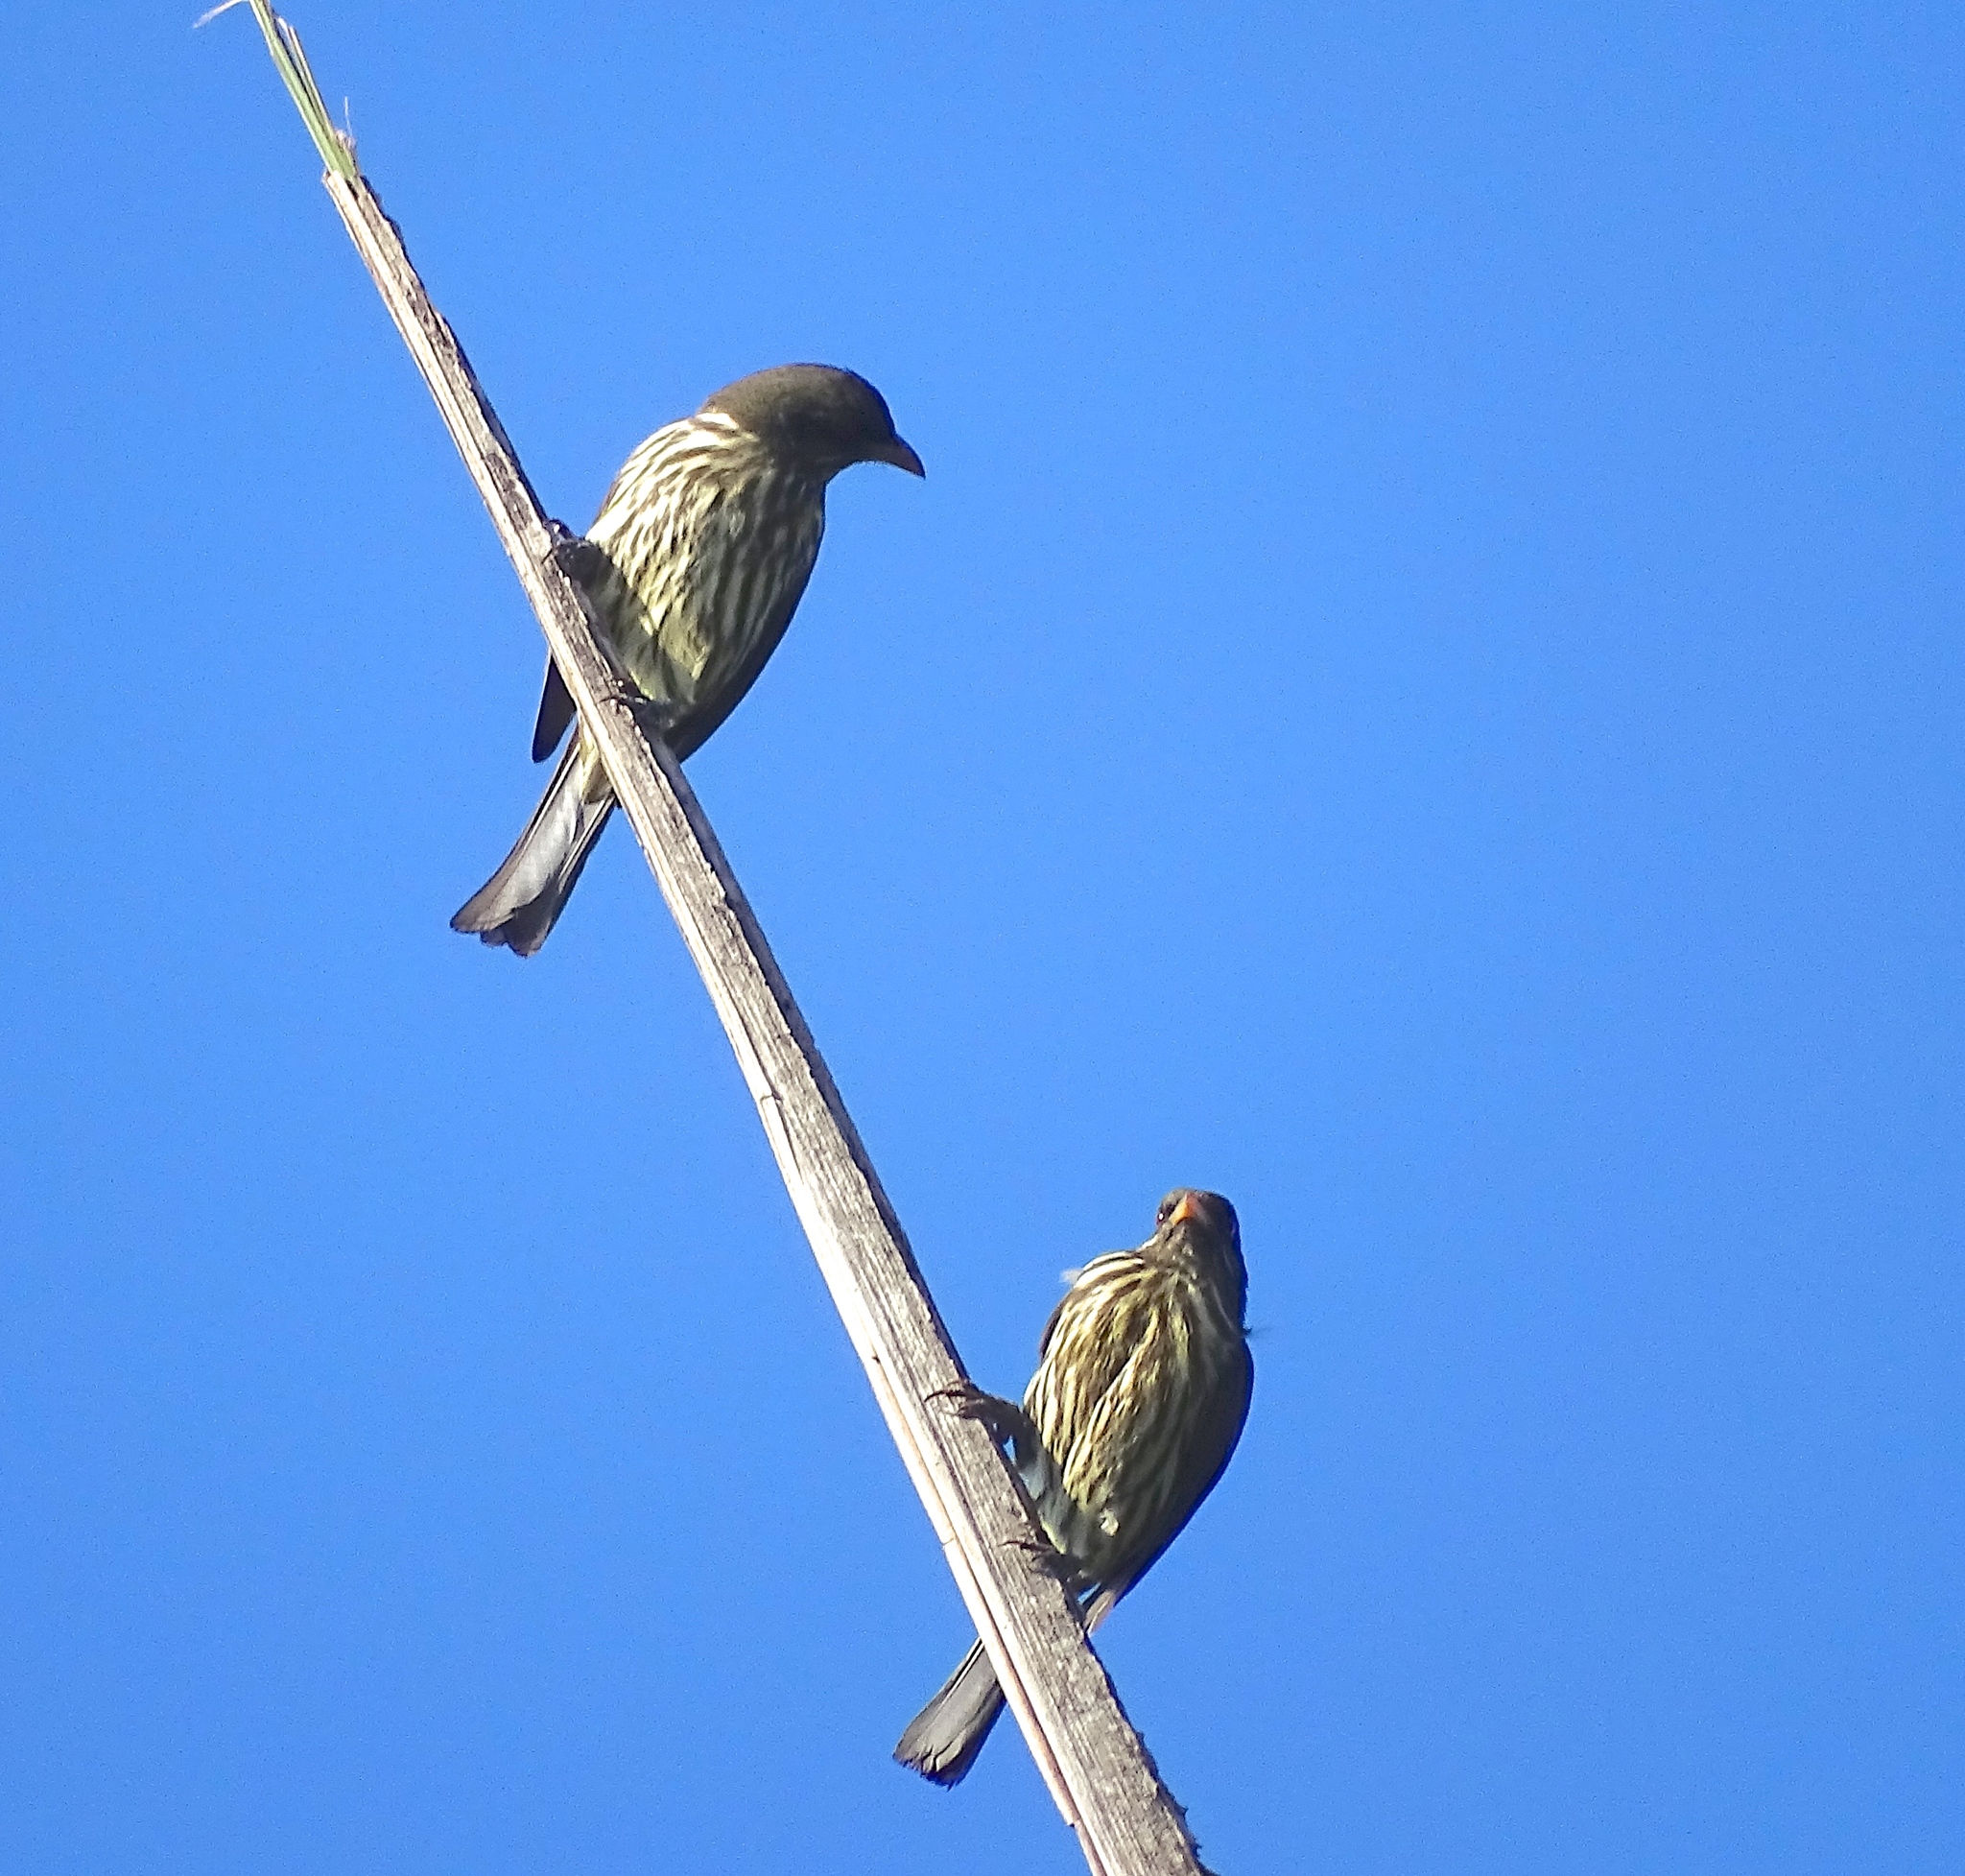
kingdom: Animalia
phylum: Chordata
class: Aves
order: Passeriformes
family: Dulidae
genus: Dulus
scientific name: Dulus dominicus
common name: Palmchat
